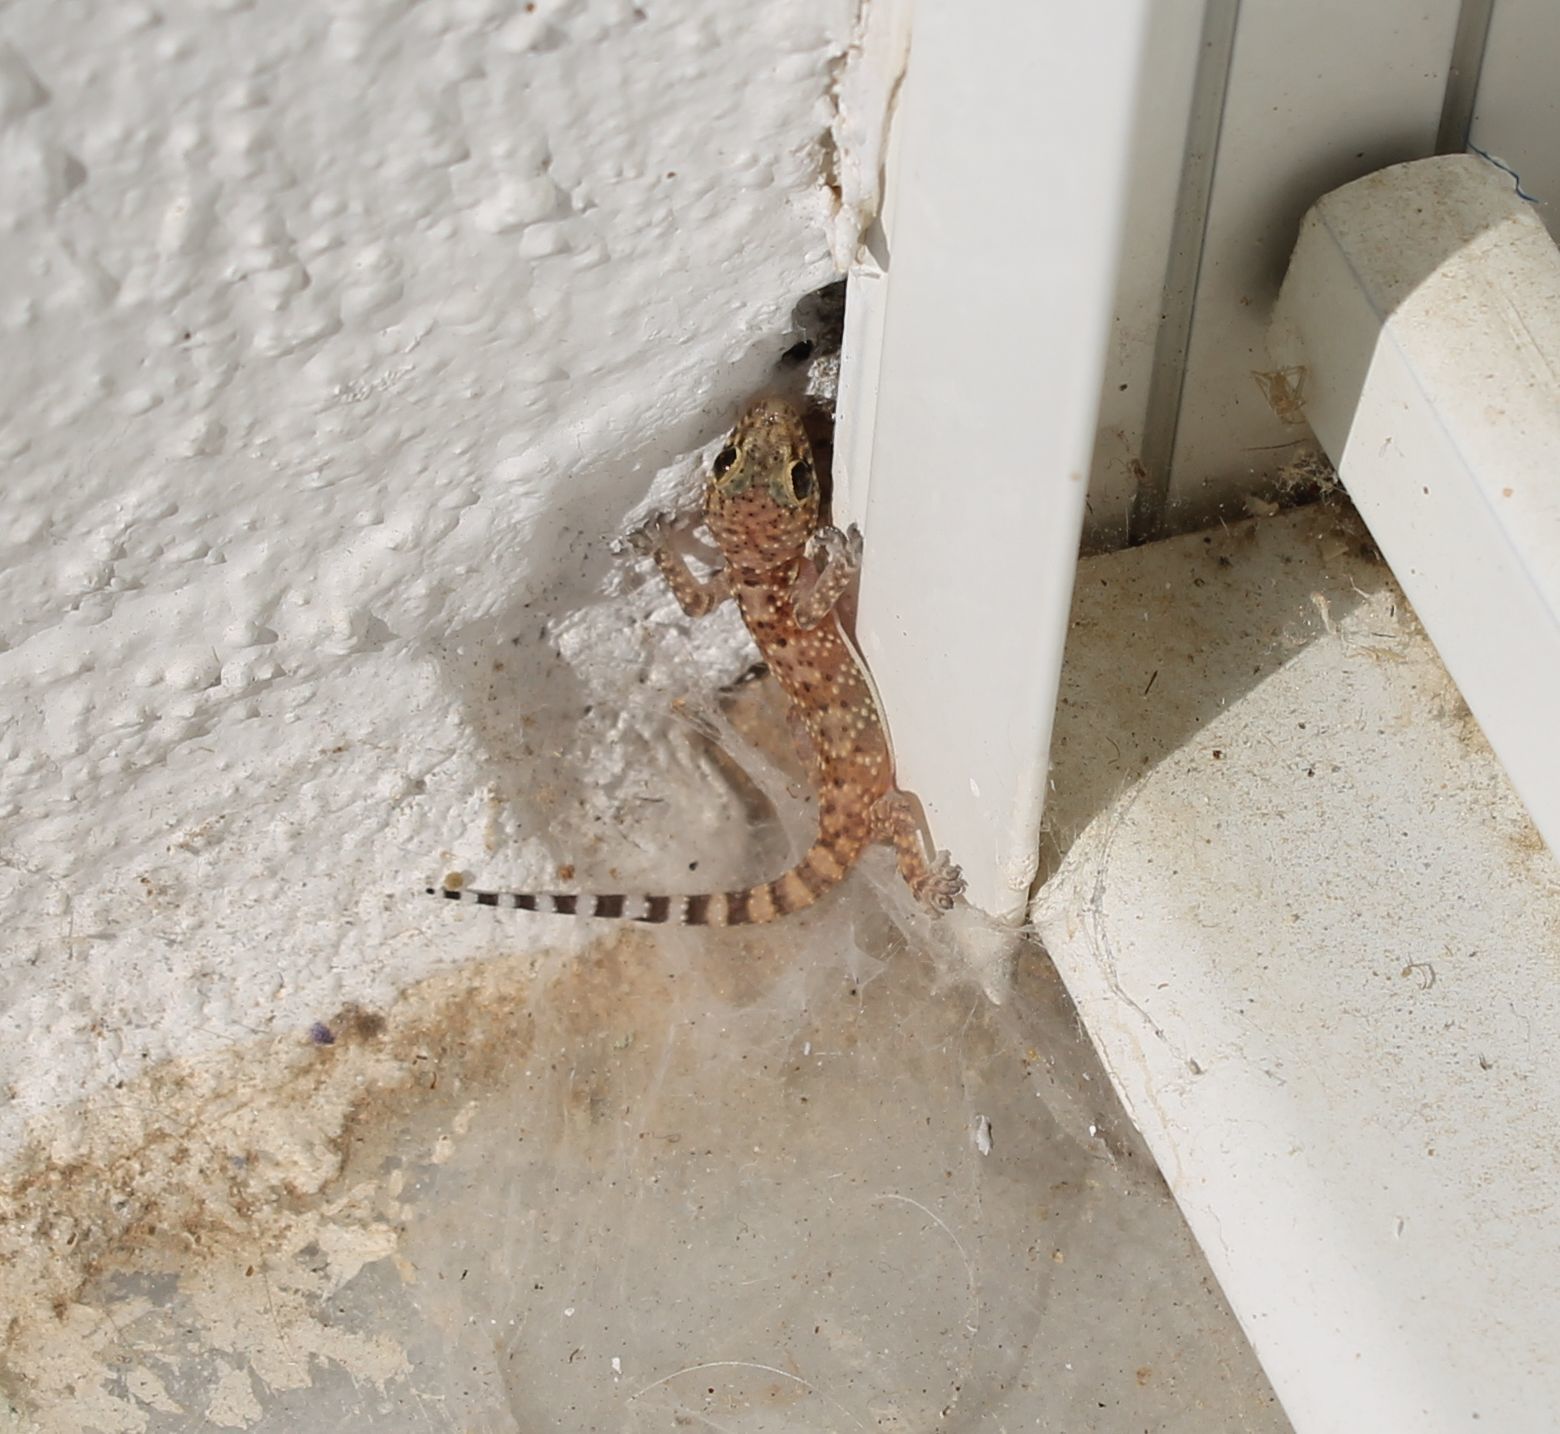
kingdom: Animalia
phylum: Chordata
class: Squamata
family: Gekkonidae
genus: Hemidactylus
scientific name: Hemidactylus turcicus
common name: Turkish gecko
